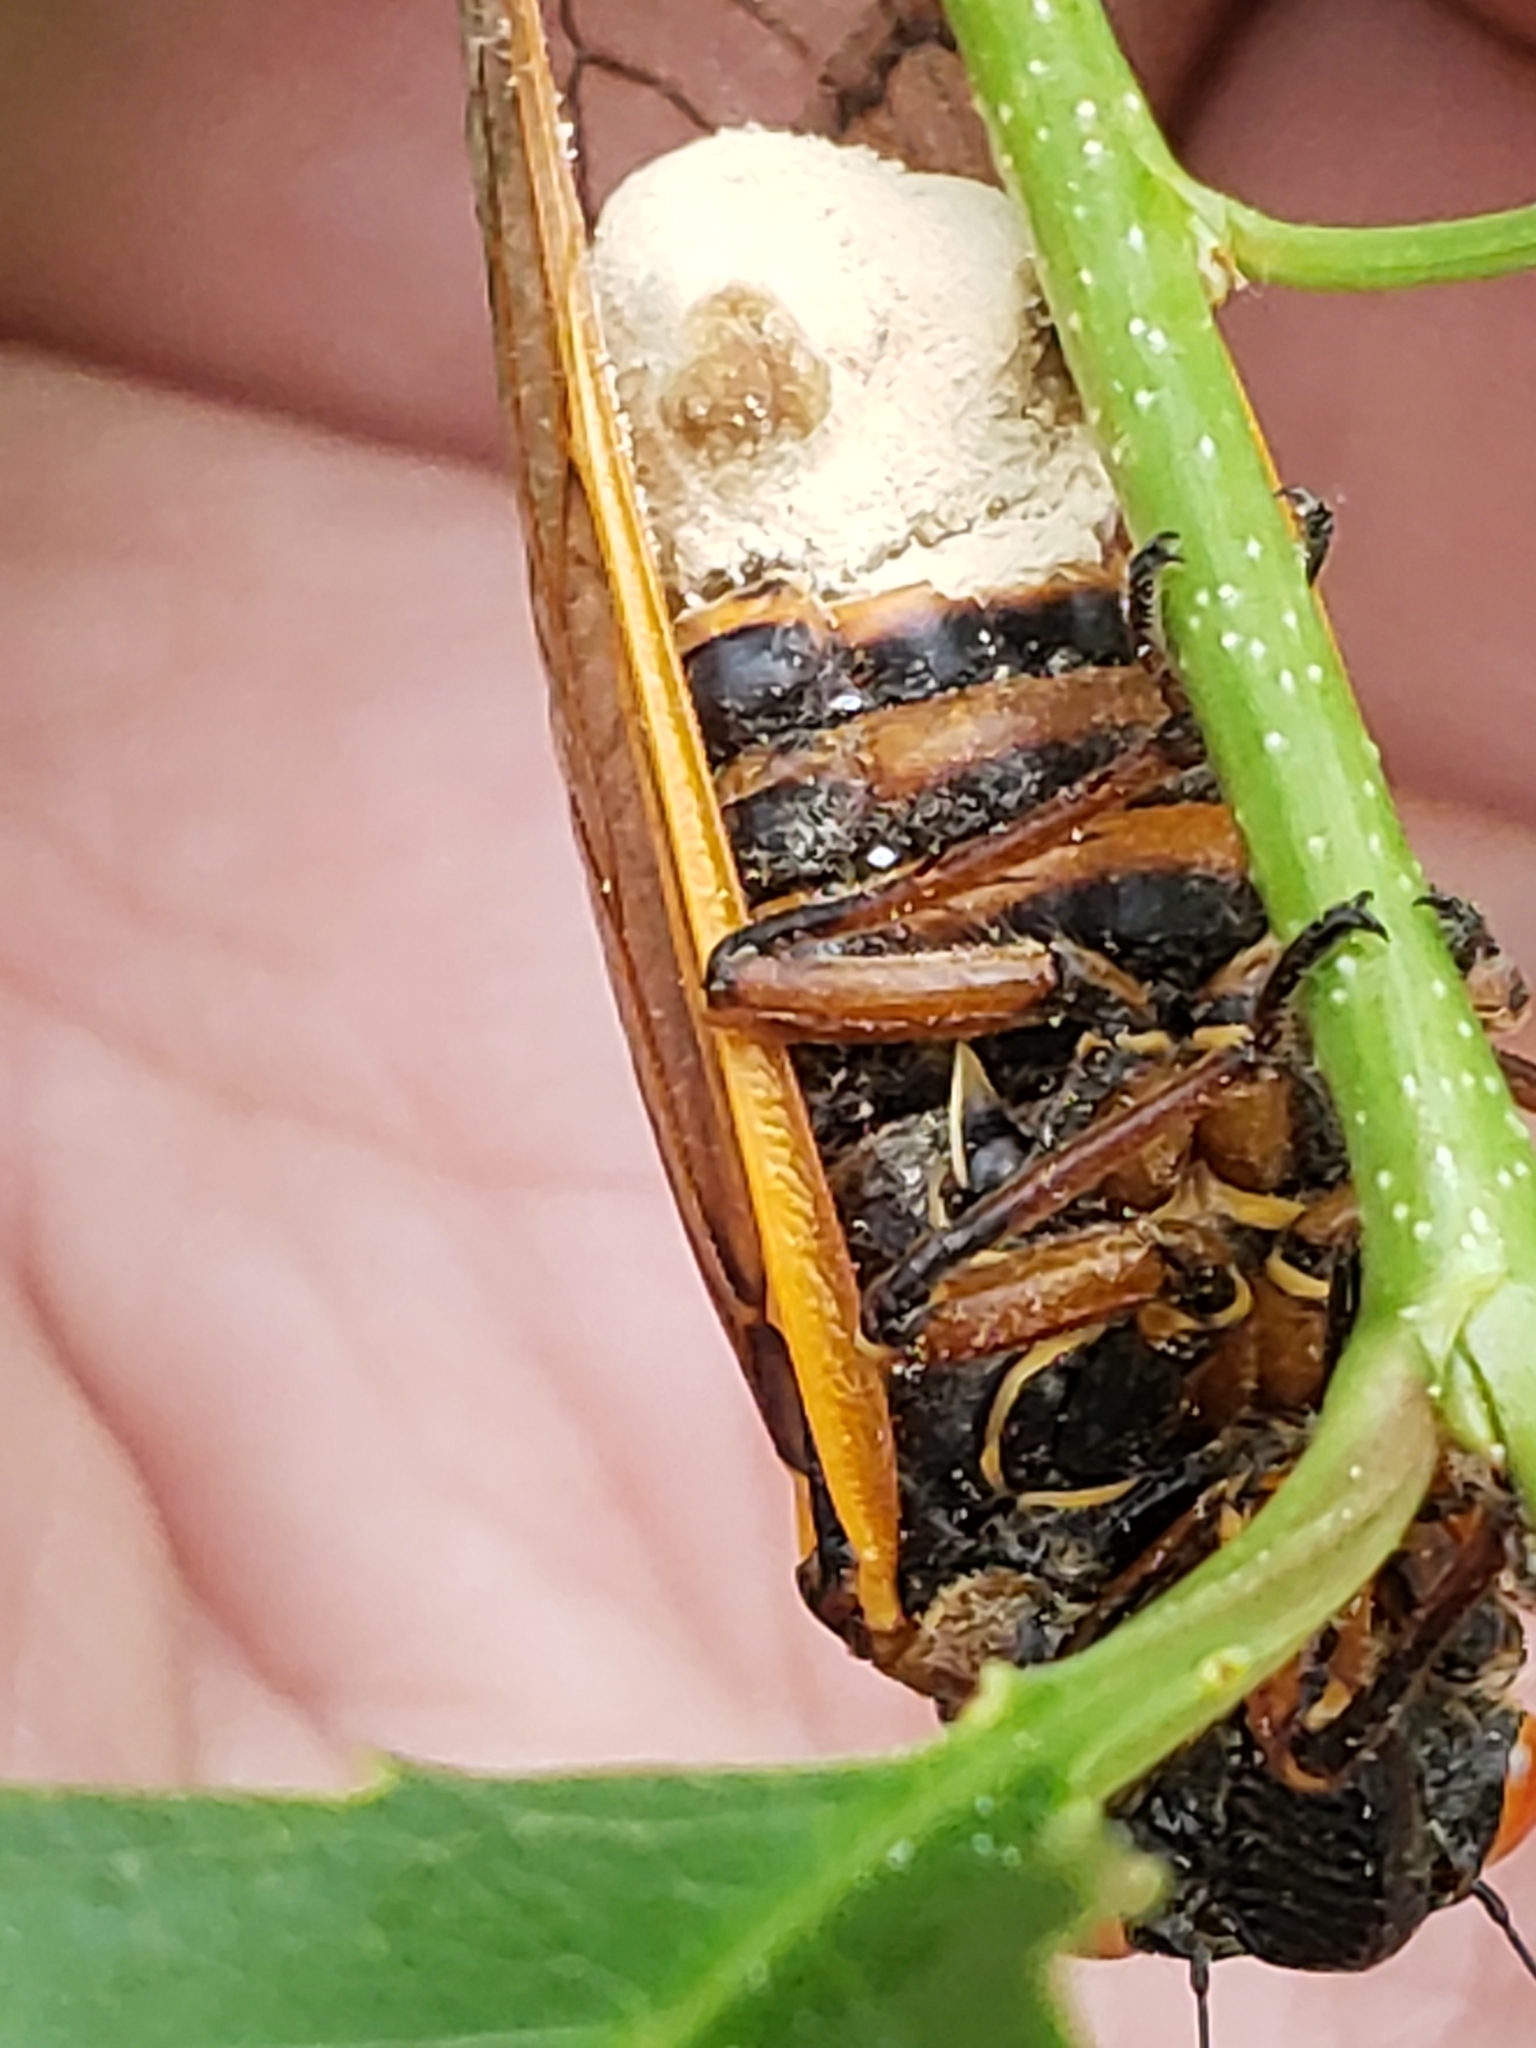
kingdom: Fungi
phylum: Entomophthoromycota
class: Entomophthoromycetes
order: Entomophthorales
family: Entomophthoraceae
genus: Massospora
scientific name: Massospora cicadina
